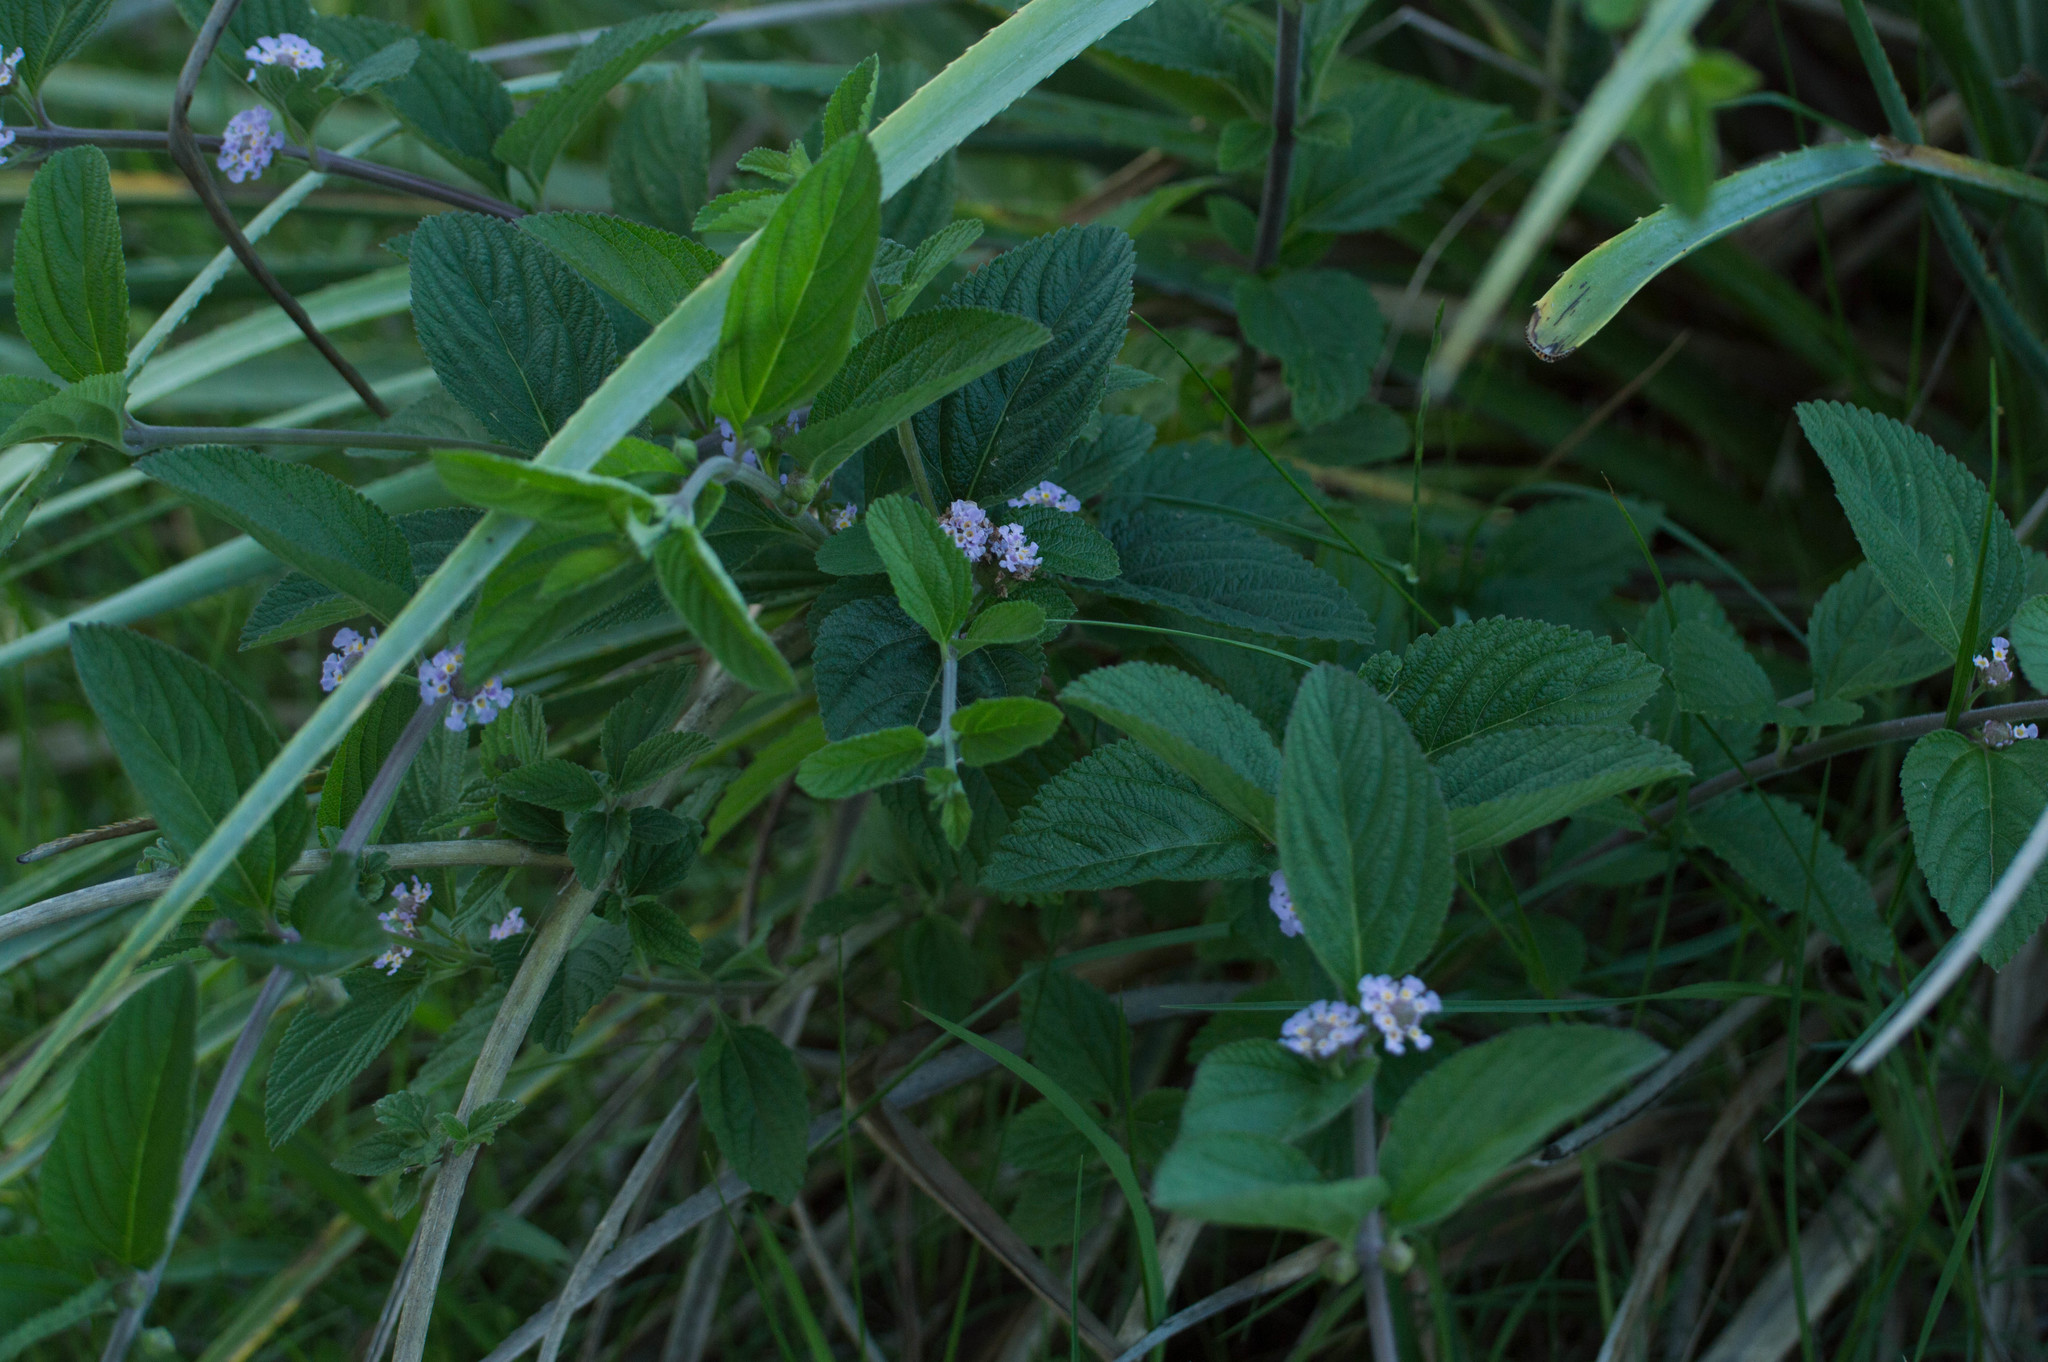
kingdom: Plantae
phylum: Tracheophyta
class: Magnoliopsida
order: Lamiales
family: Verbenaceae
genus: Lippia
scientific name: Lippia alba
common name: Bushy matgrass
